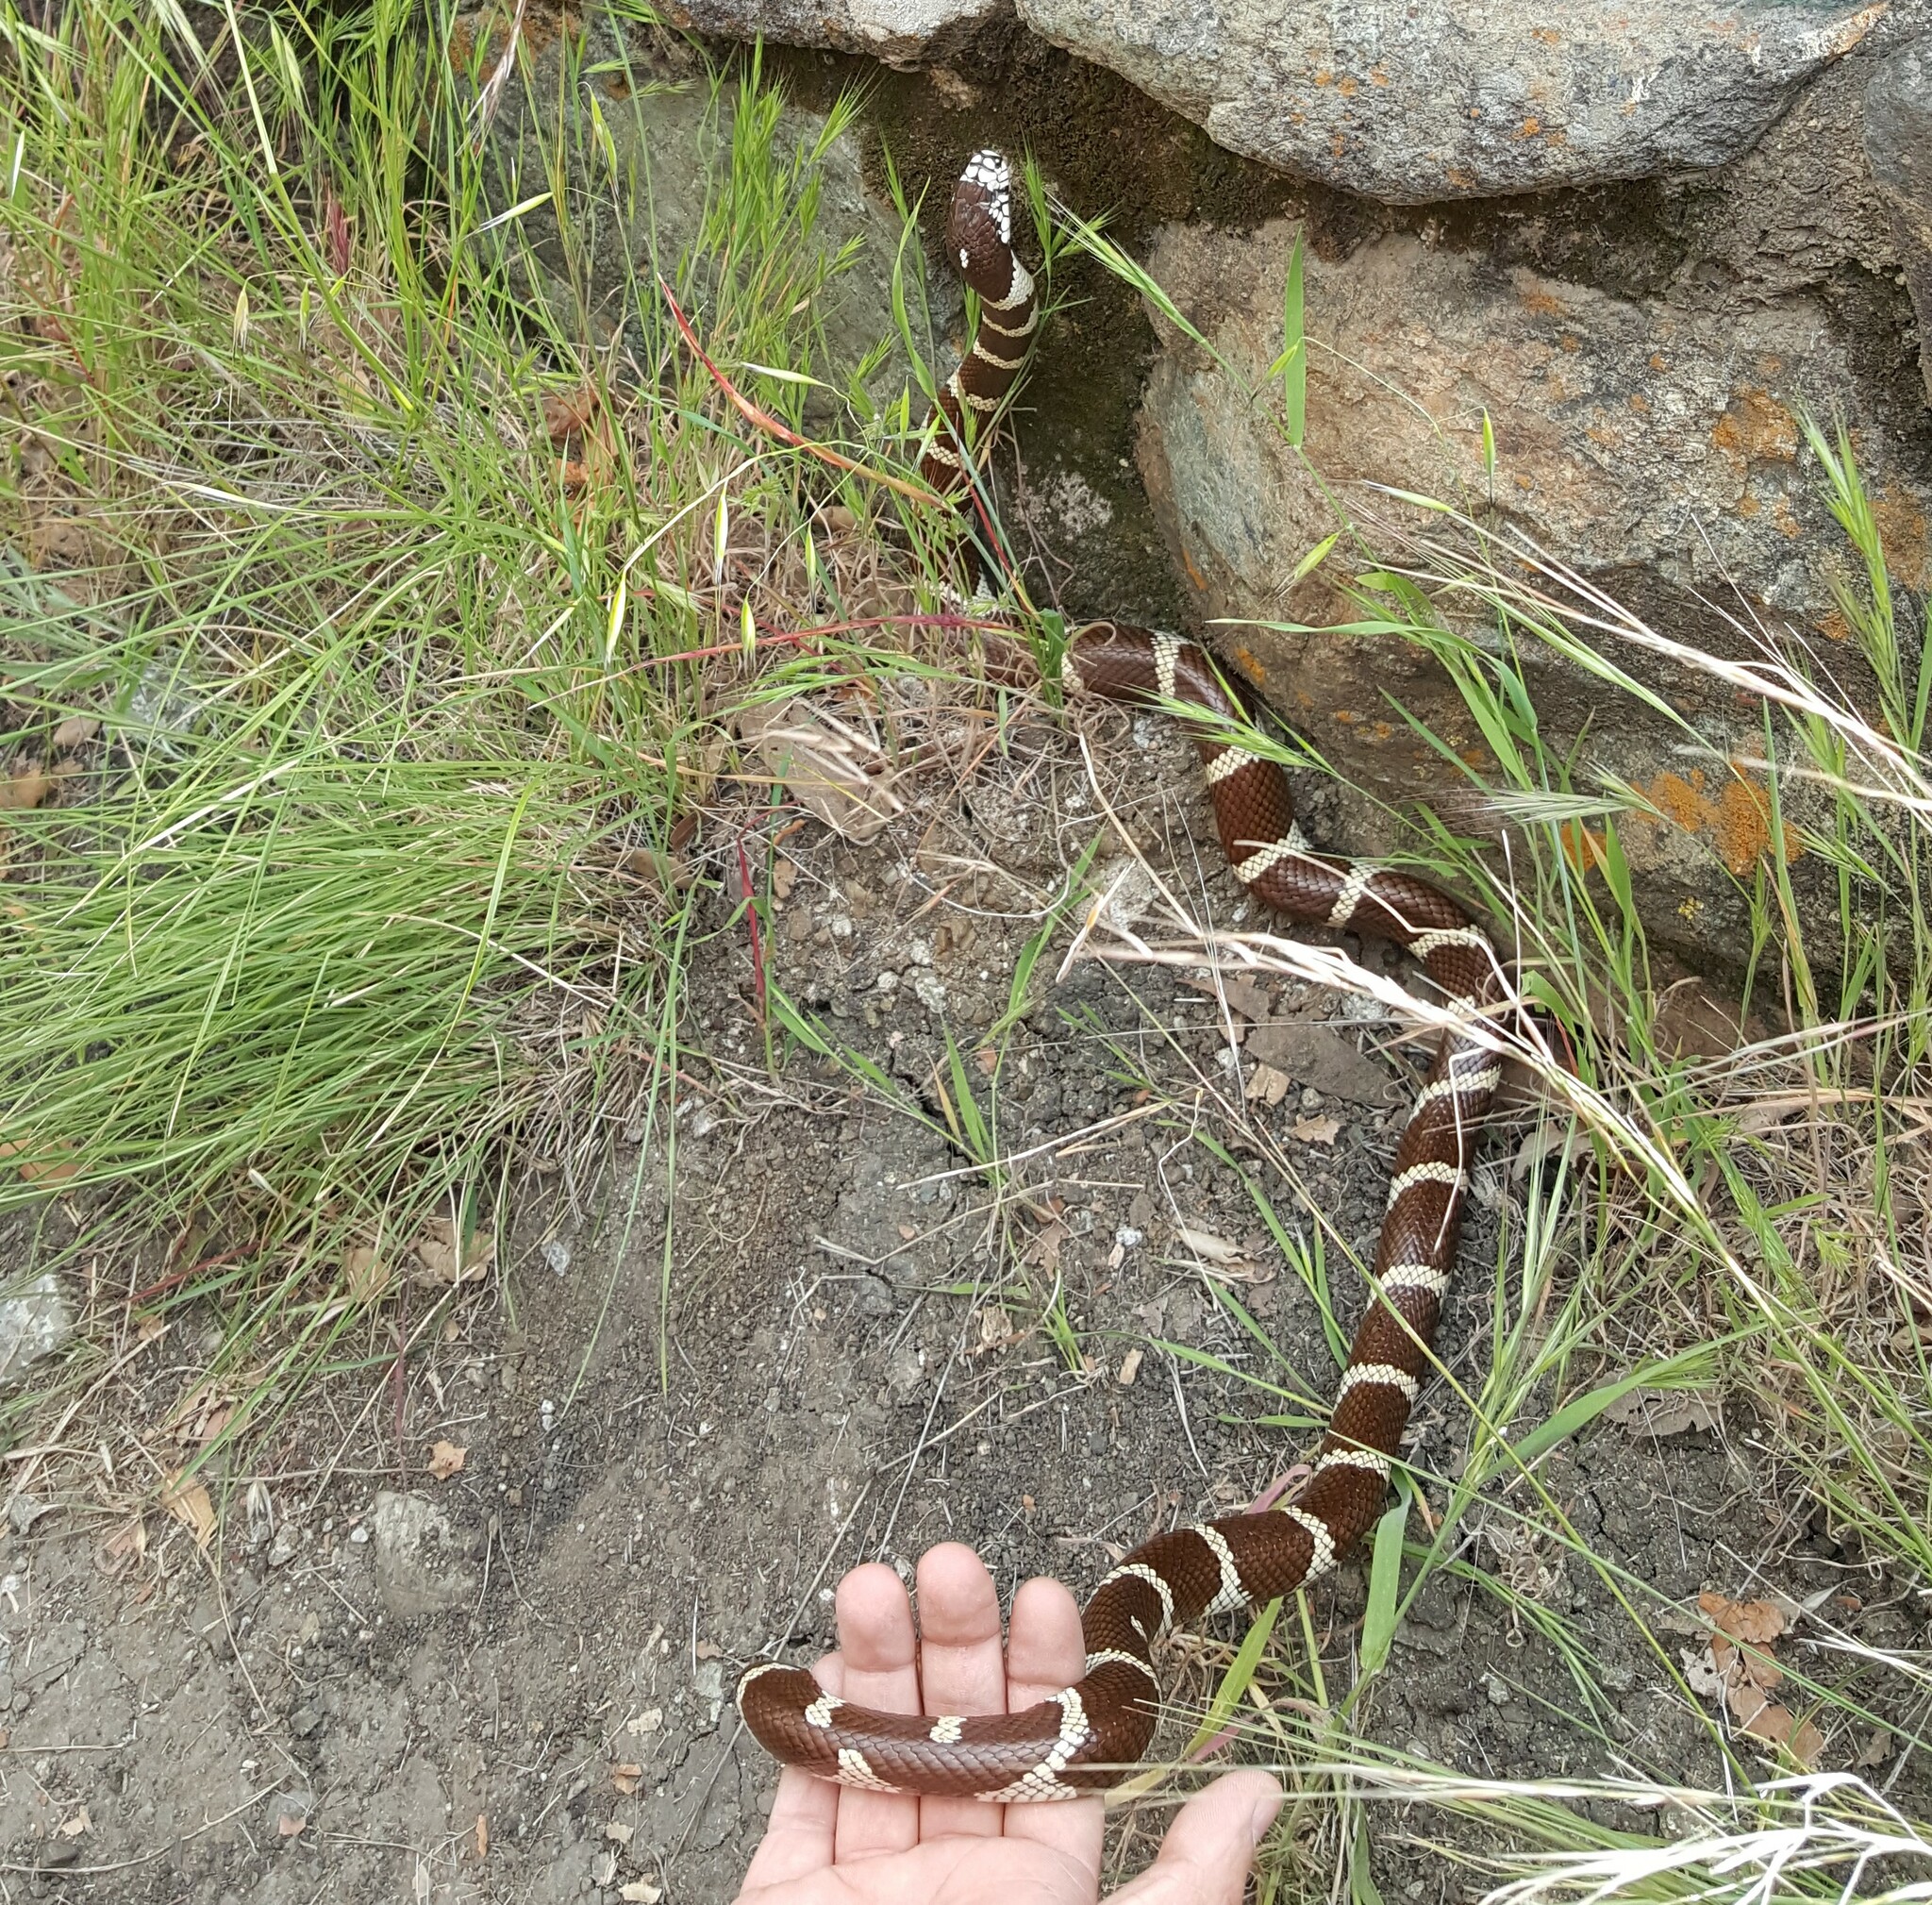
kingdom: Animalia
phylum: Chordata
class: Squamata
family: Colubridae
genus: Lampropeltis
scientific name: Lampropeltis californiae
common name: California kingsnake
